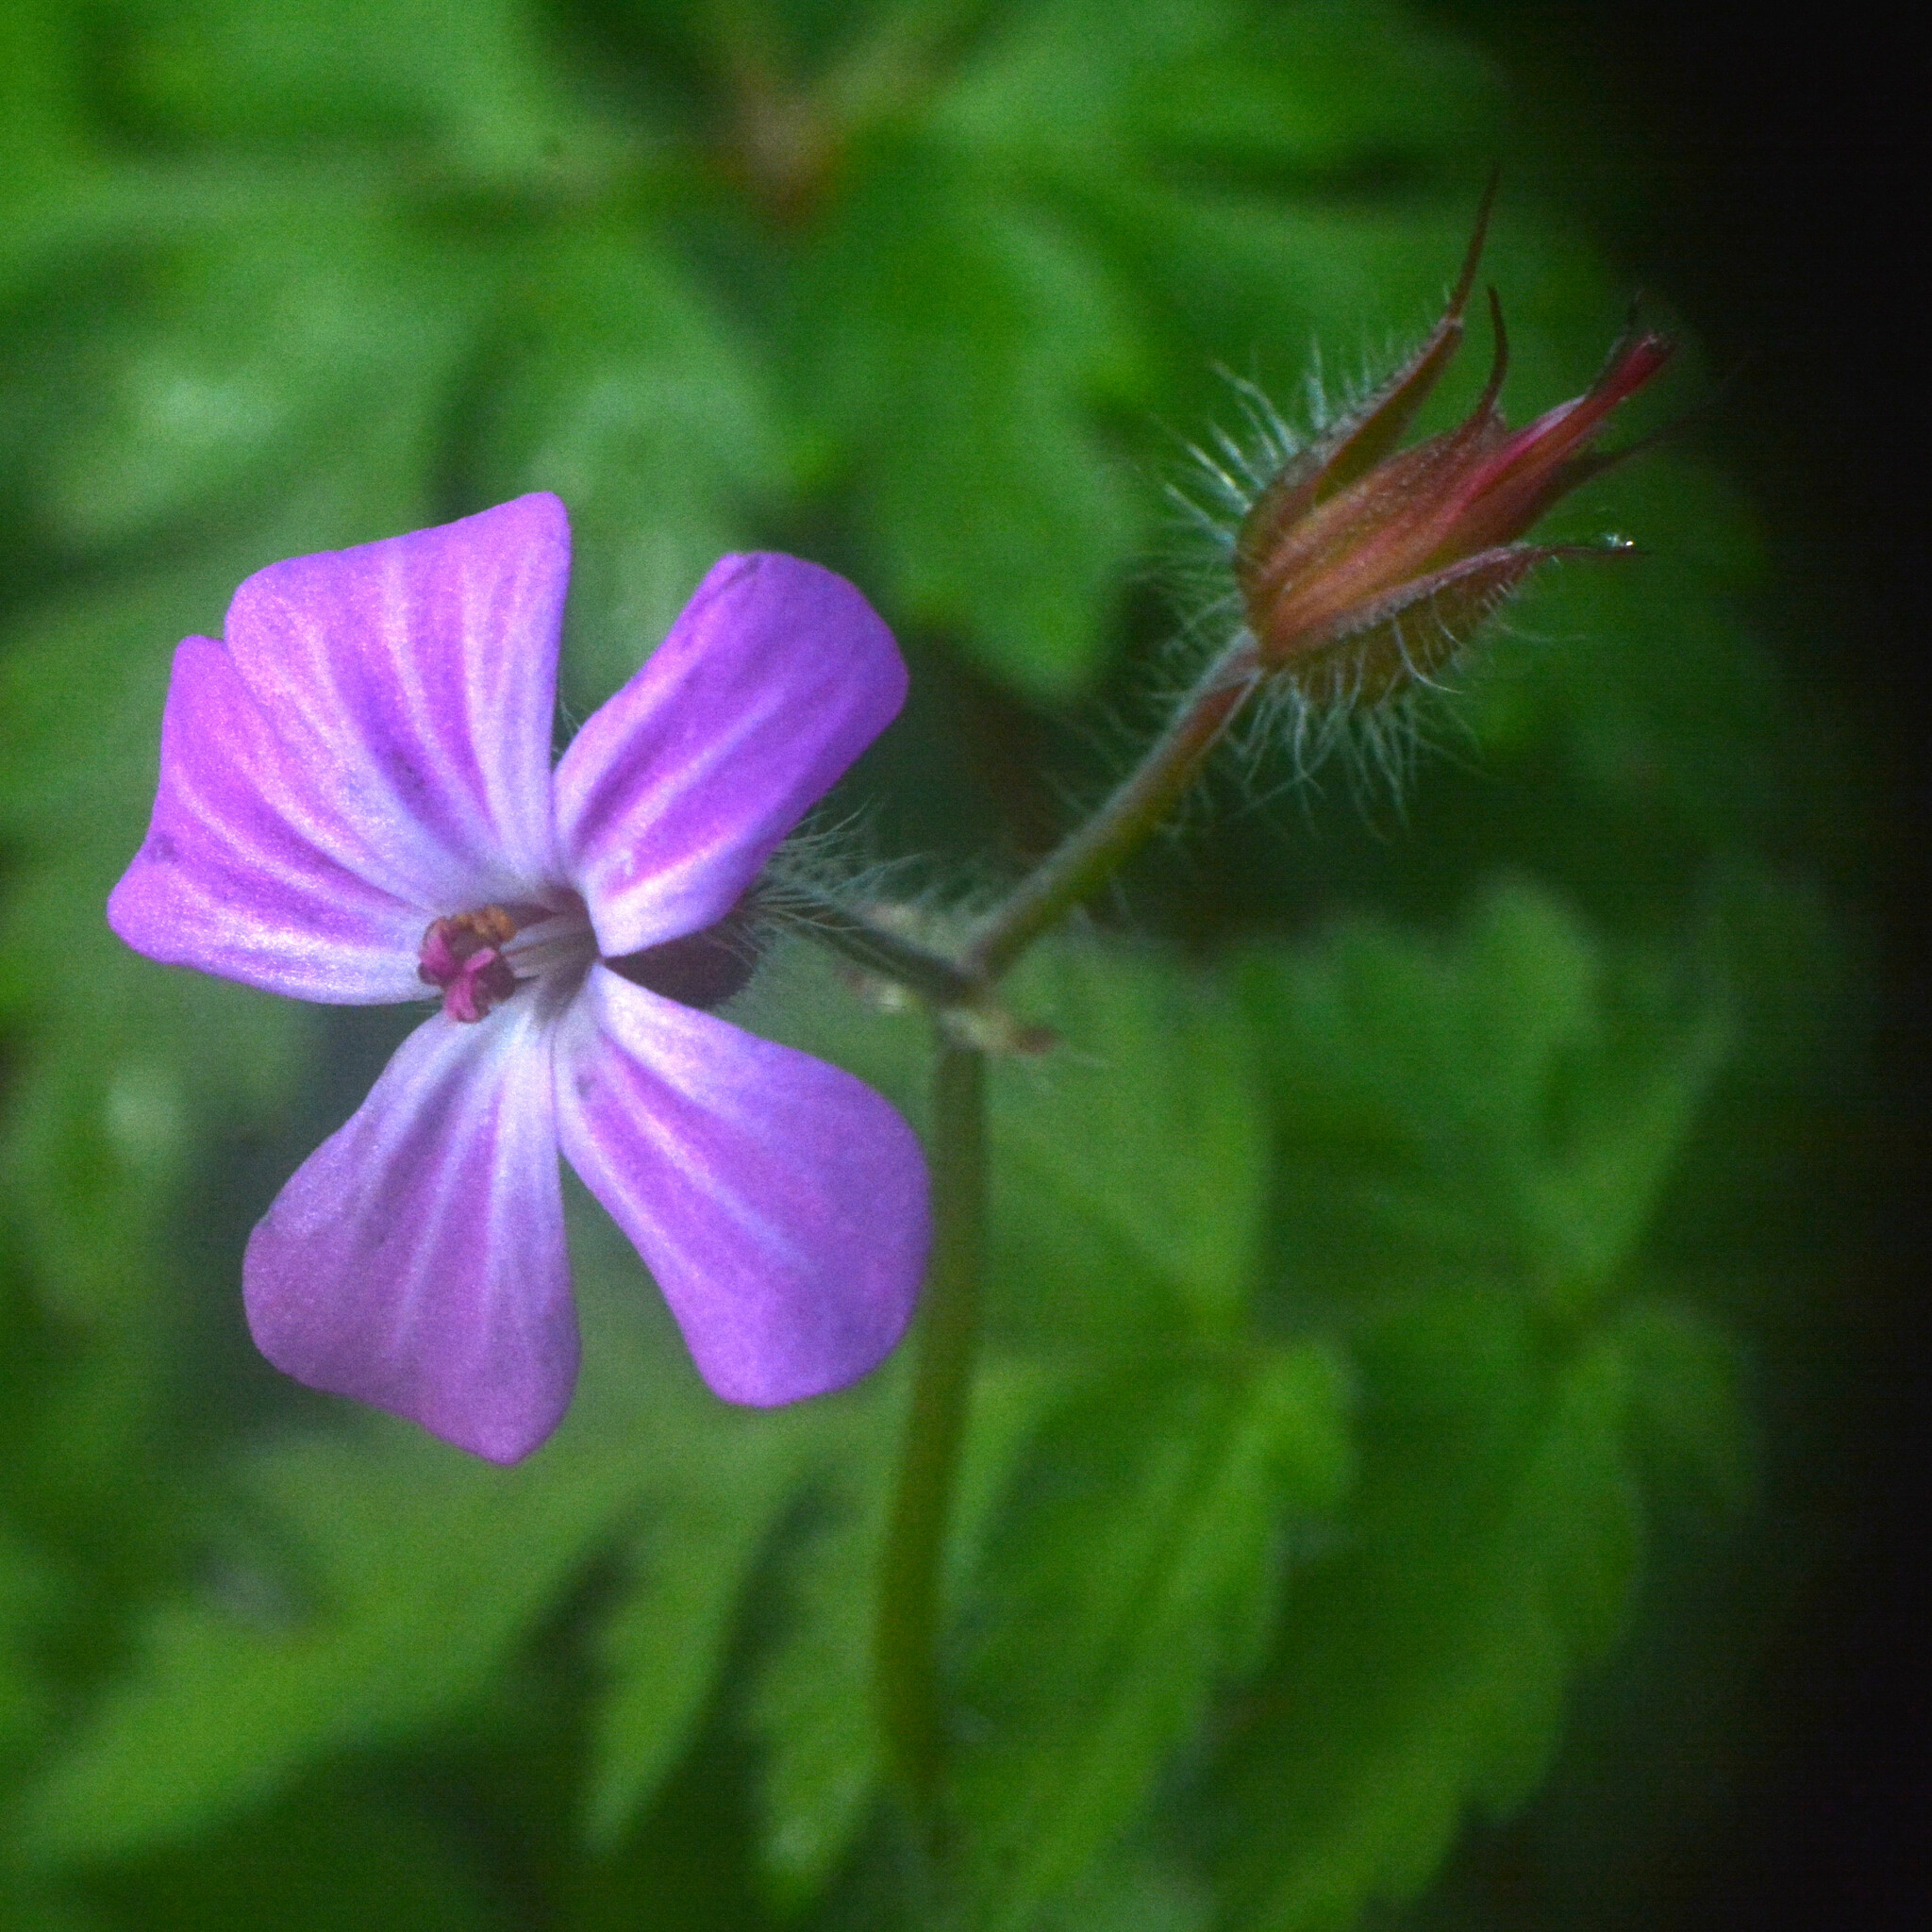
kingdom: Plantae
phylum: Tracheophyta
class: Magnoliopsida
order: Geraniales
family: Geraniaceae
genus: Geranium
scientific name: Geranium robertianum
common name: Herb-robert
